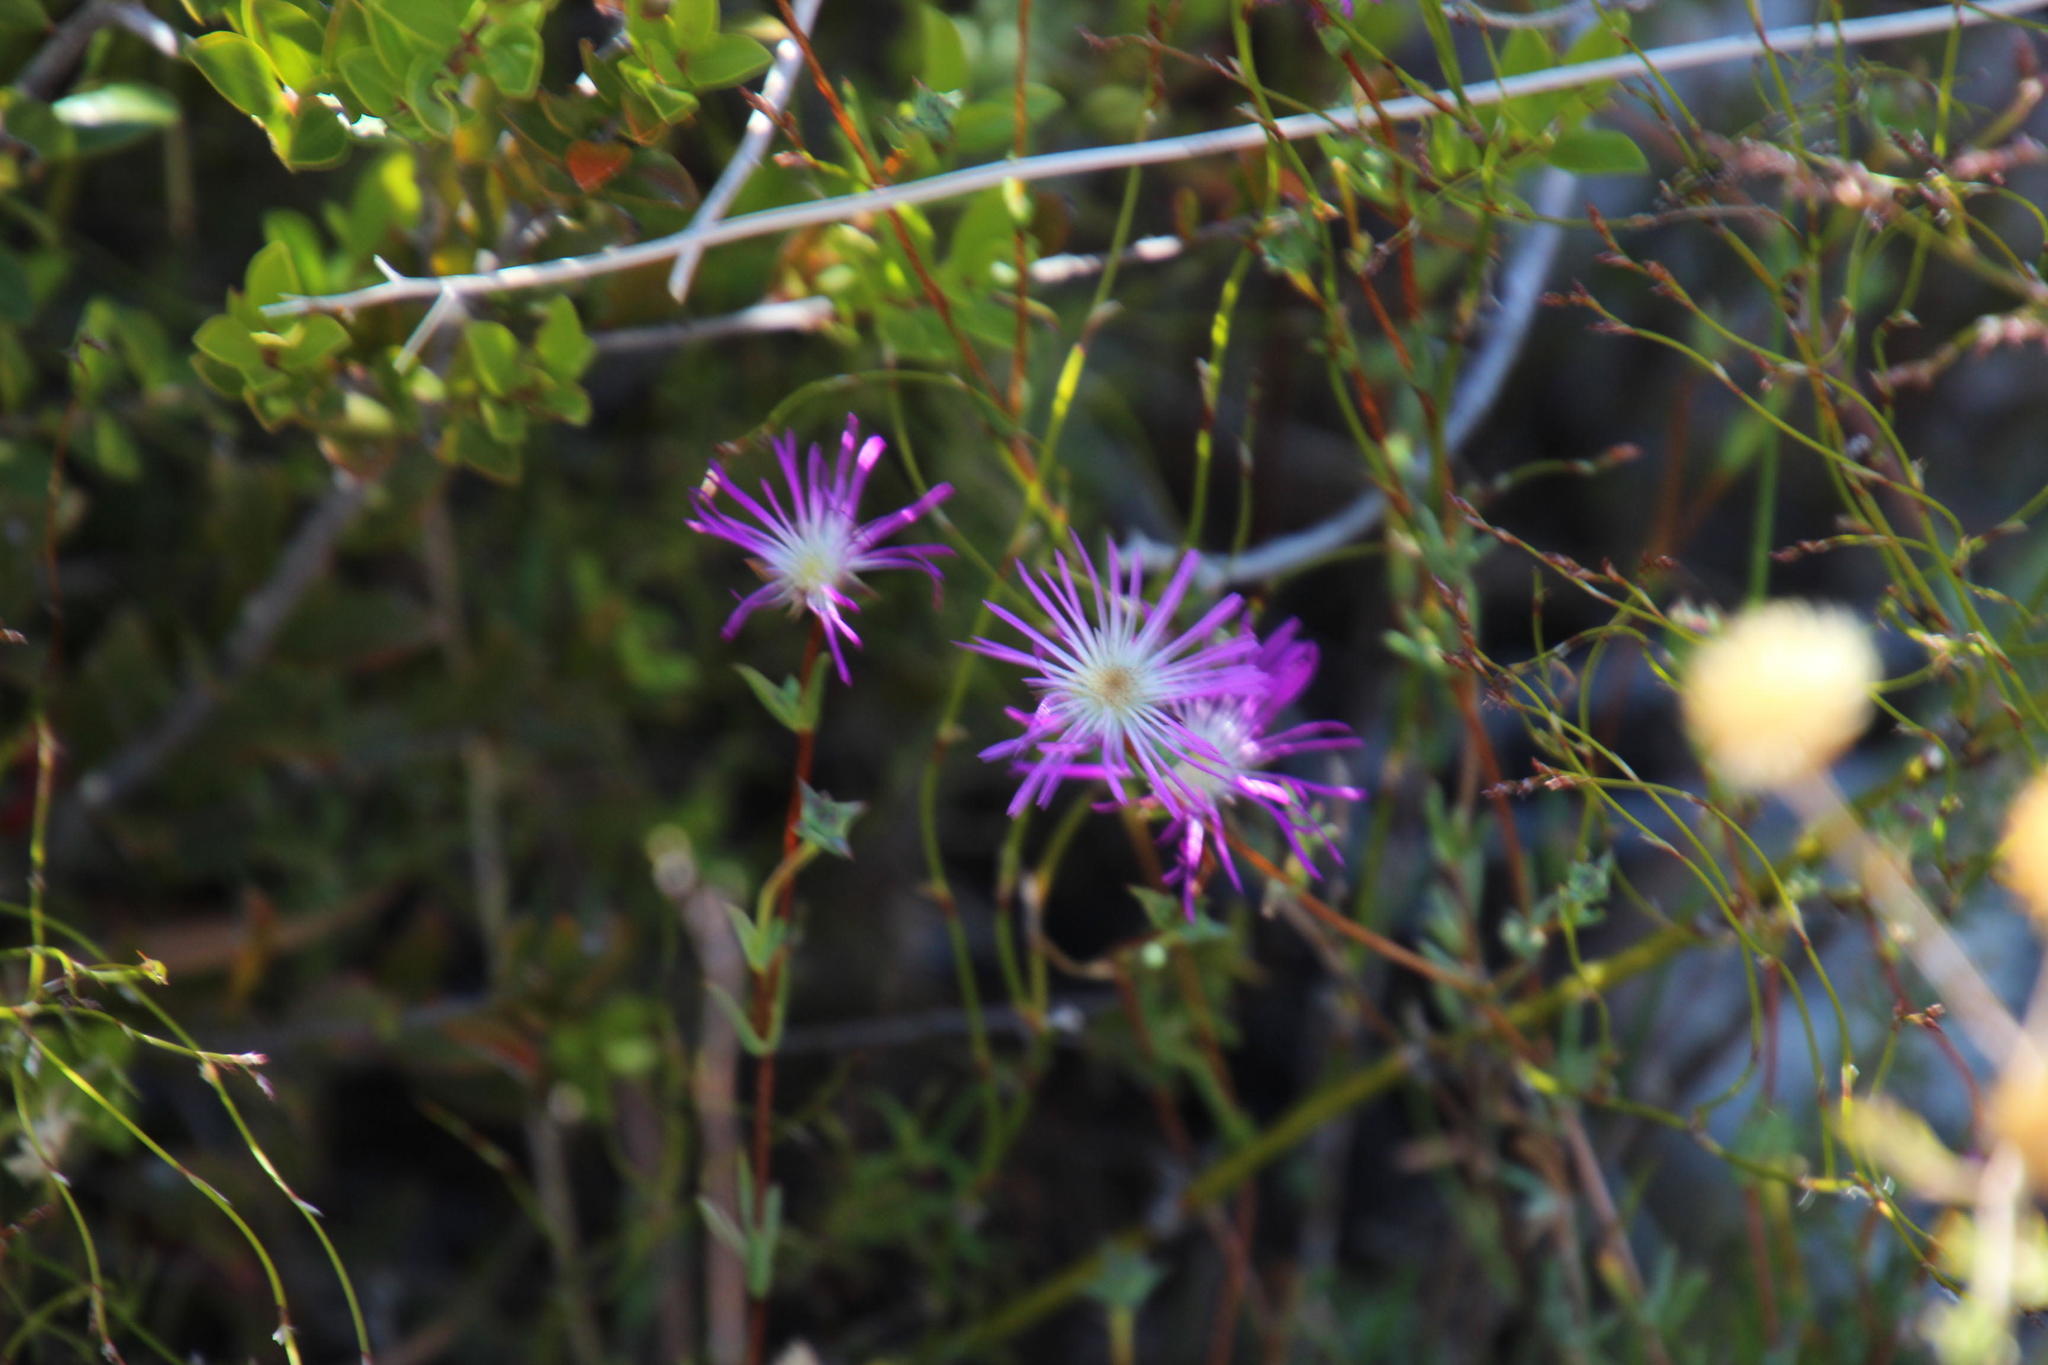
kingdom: Plantae
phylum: Tracheophyta
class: Magnoliopsida
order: Caryophyllales
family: Aizoaceae
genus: Erepsia
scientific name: Erepsia gracilis
